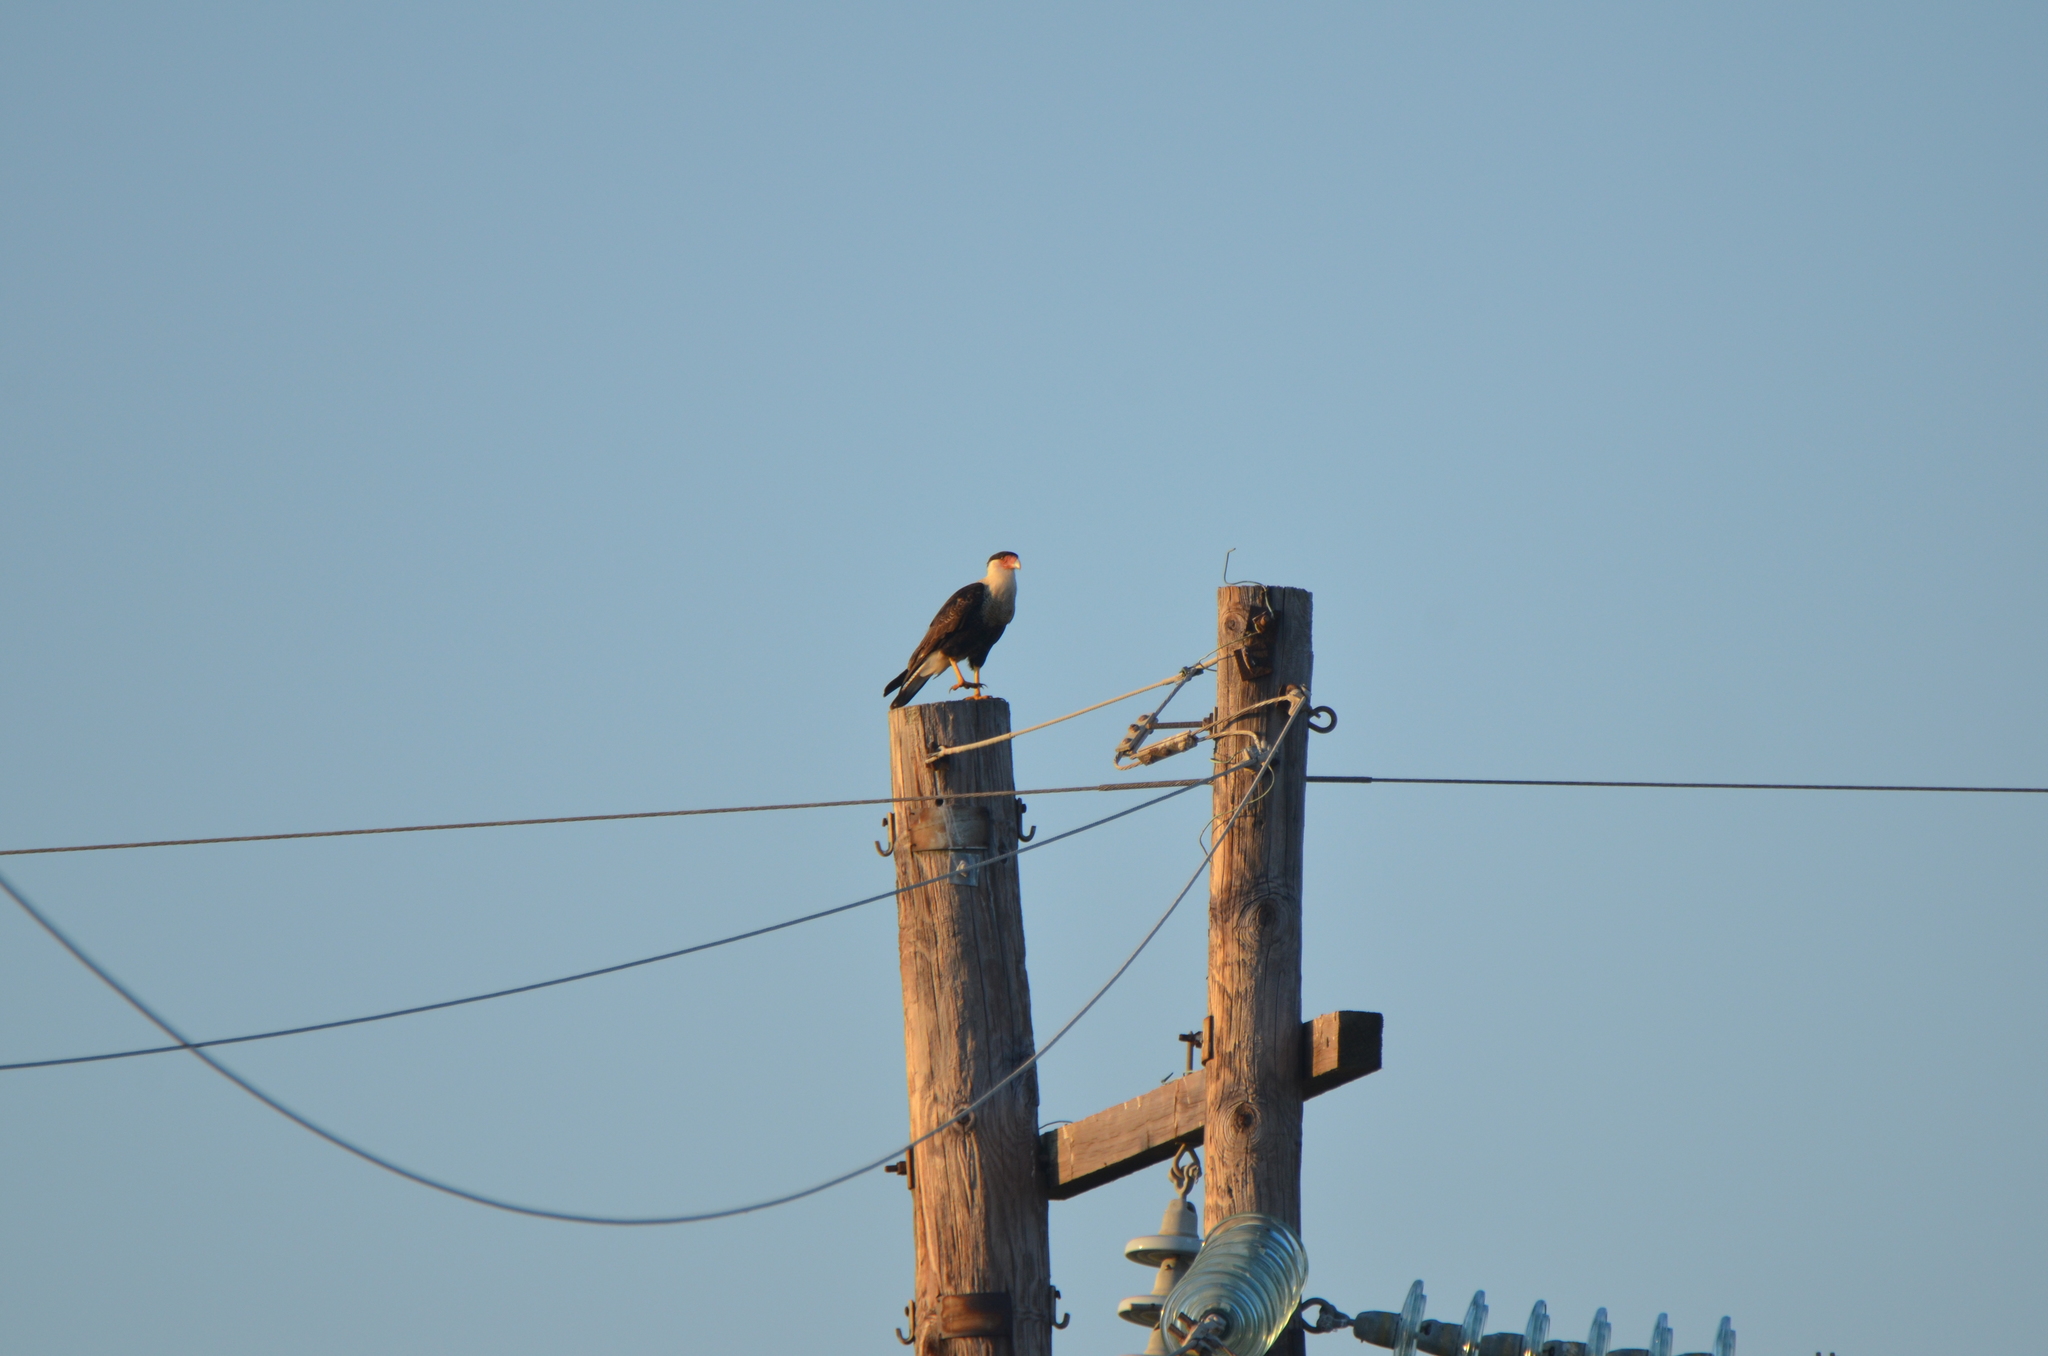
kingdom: Animalia
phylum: Chordata
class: Aves
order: Falconiformes
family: Falconidae
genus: Caracara
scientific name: Caracara plancus
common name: Southern caracara
